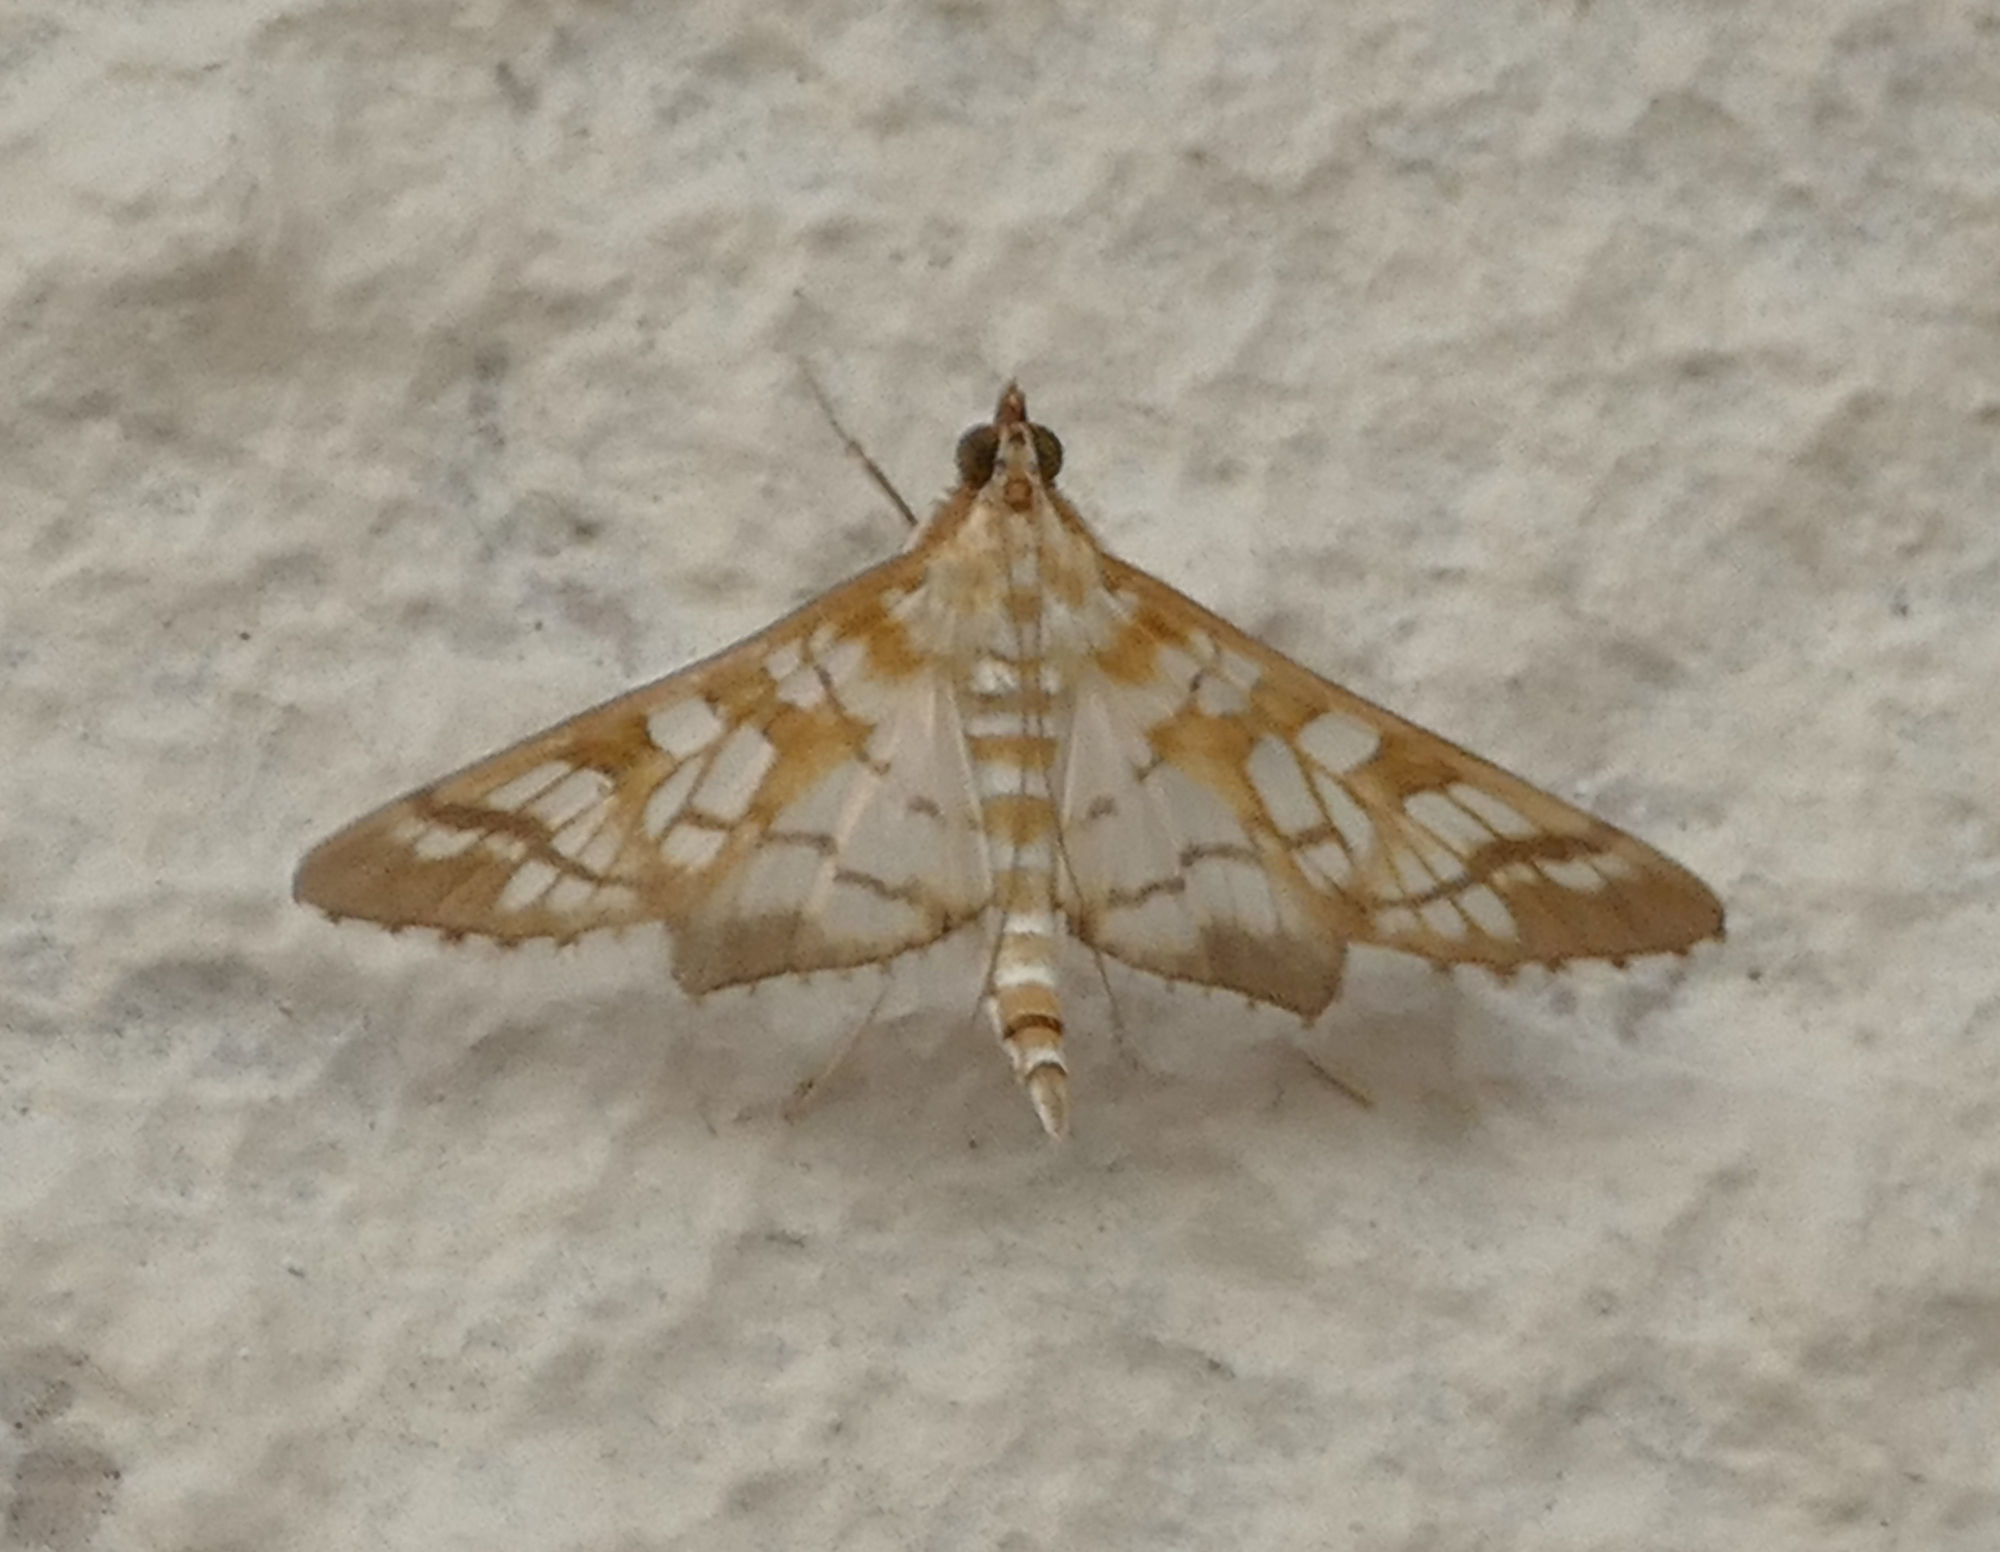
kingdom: Animalia
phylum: Arthropoda
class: Insecta
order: Lepidoptera
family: Crambidae
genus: Epipagis
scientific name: Epipagis fenestralis
